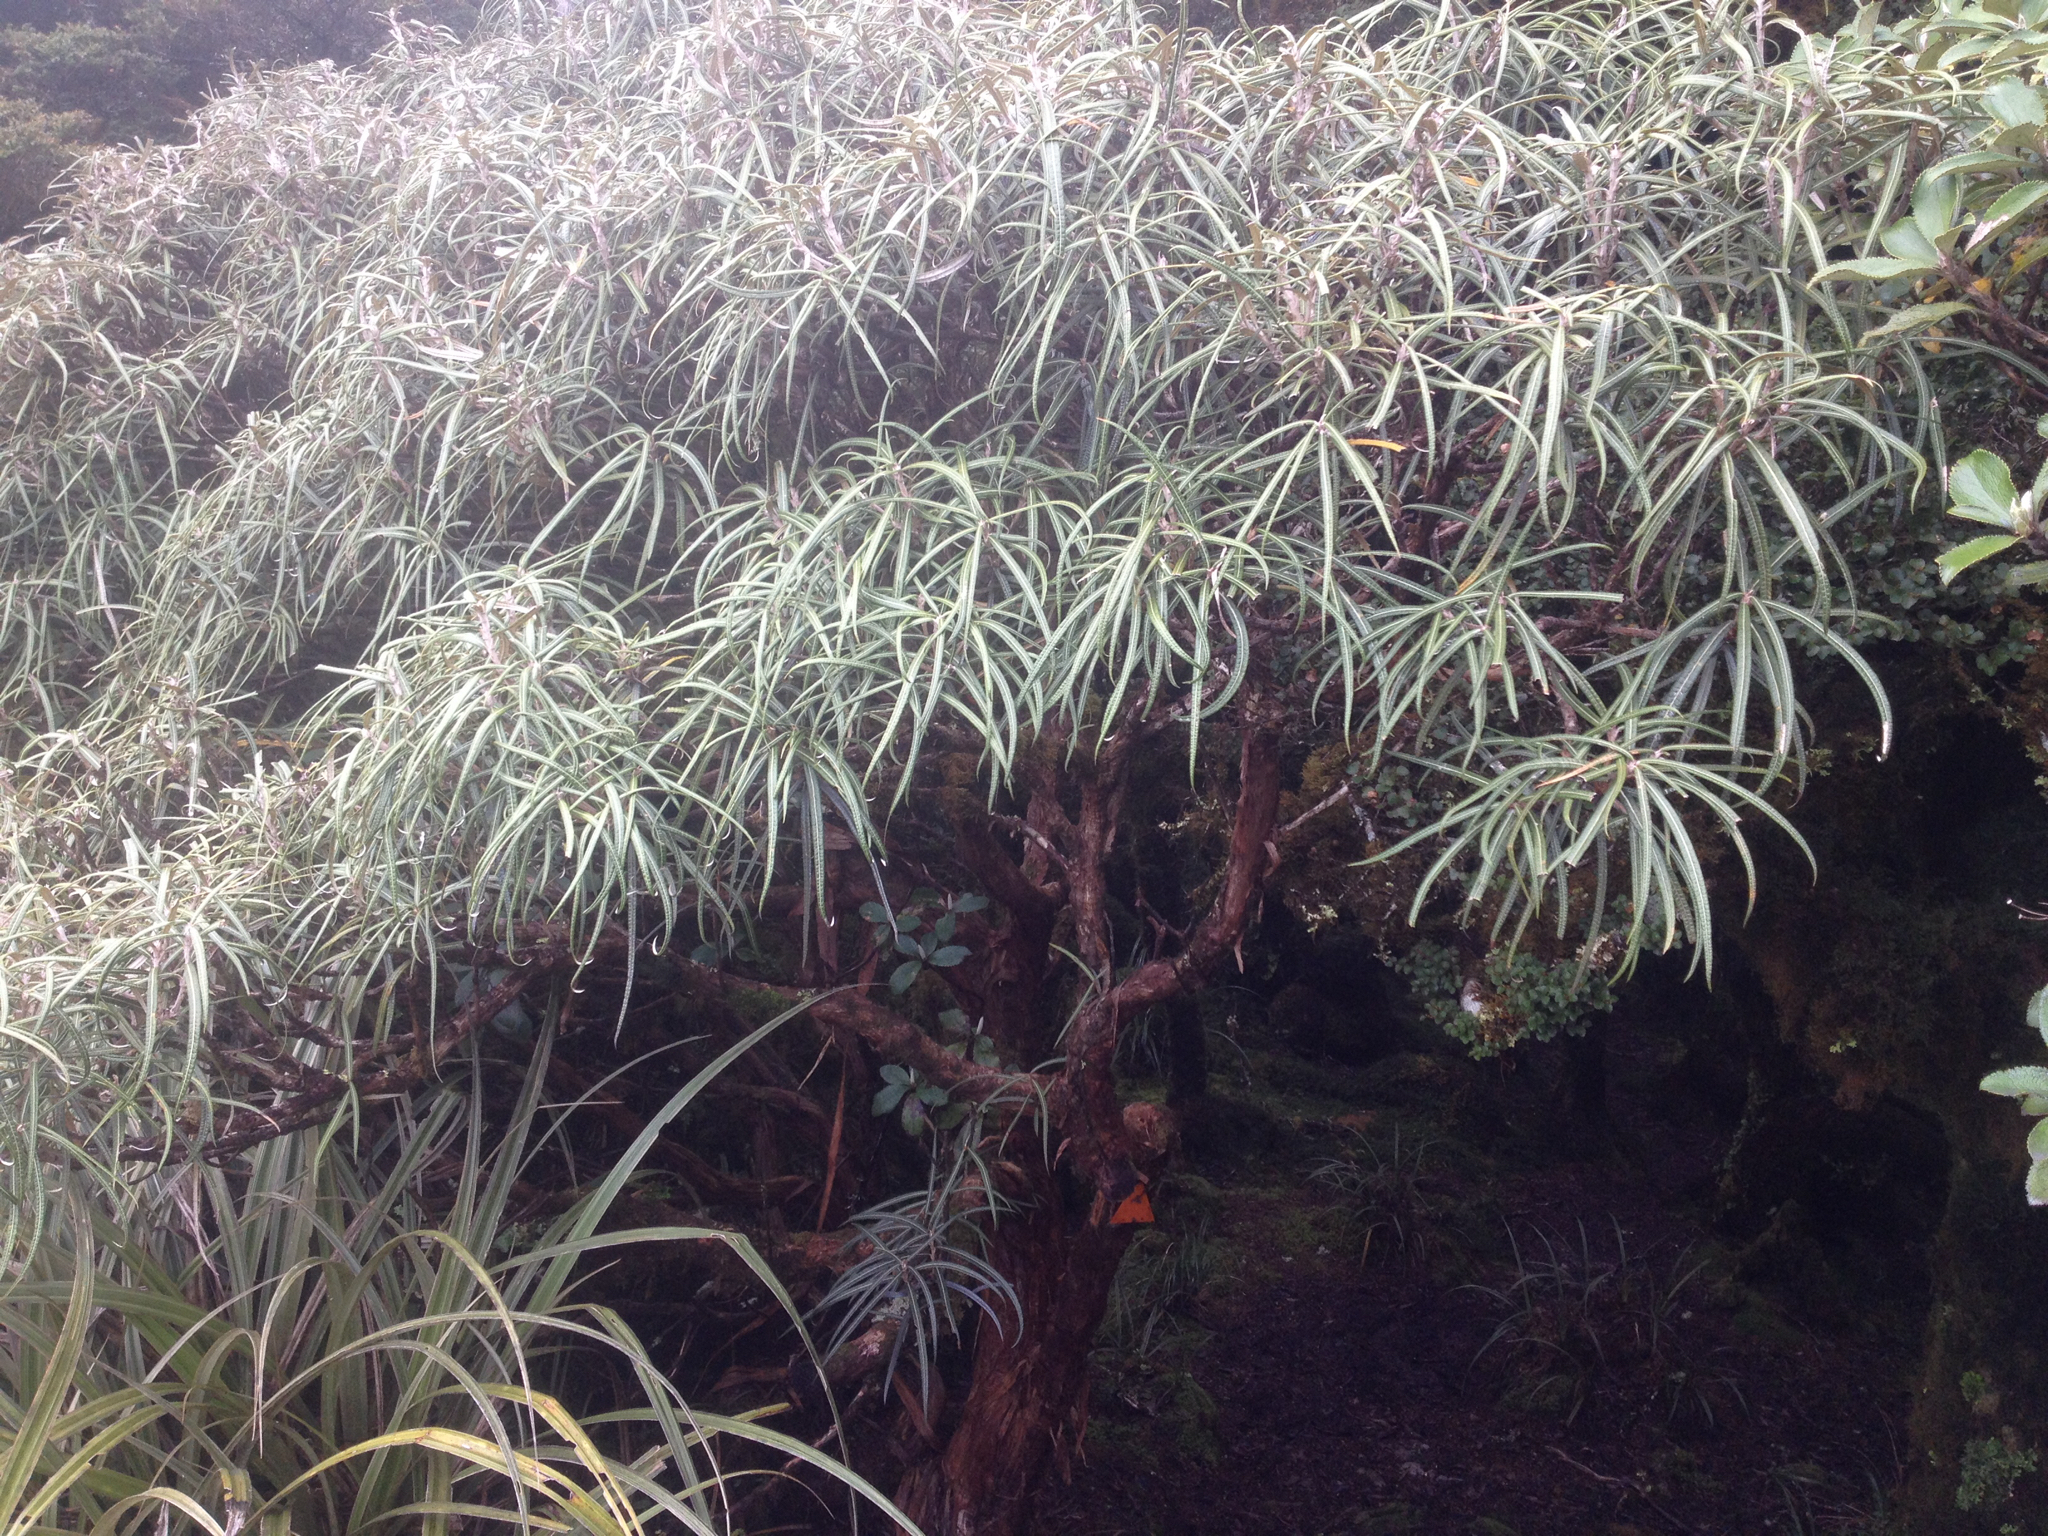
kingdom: Plantae
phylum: Tracheophyta
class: Magnoliopsida
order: Asterales
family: Asteraceae
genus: Olearia
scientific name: Olearia lacunosa
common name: Lancewood tree daisy
